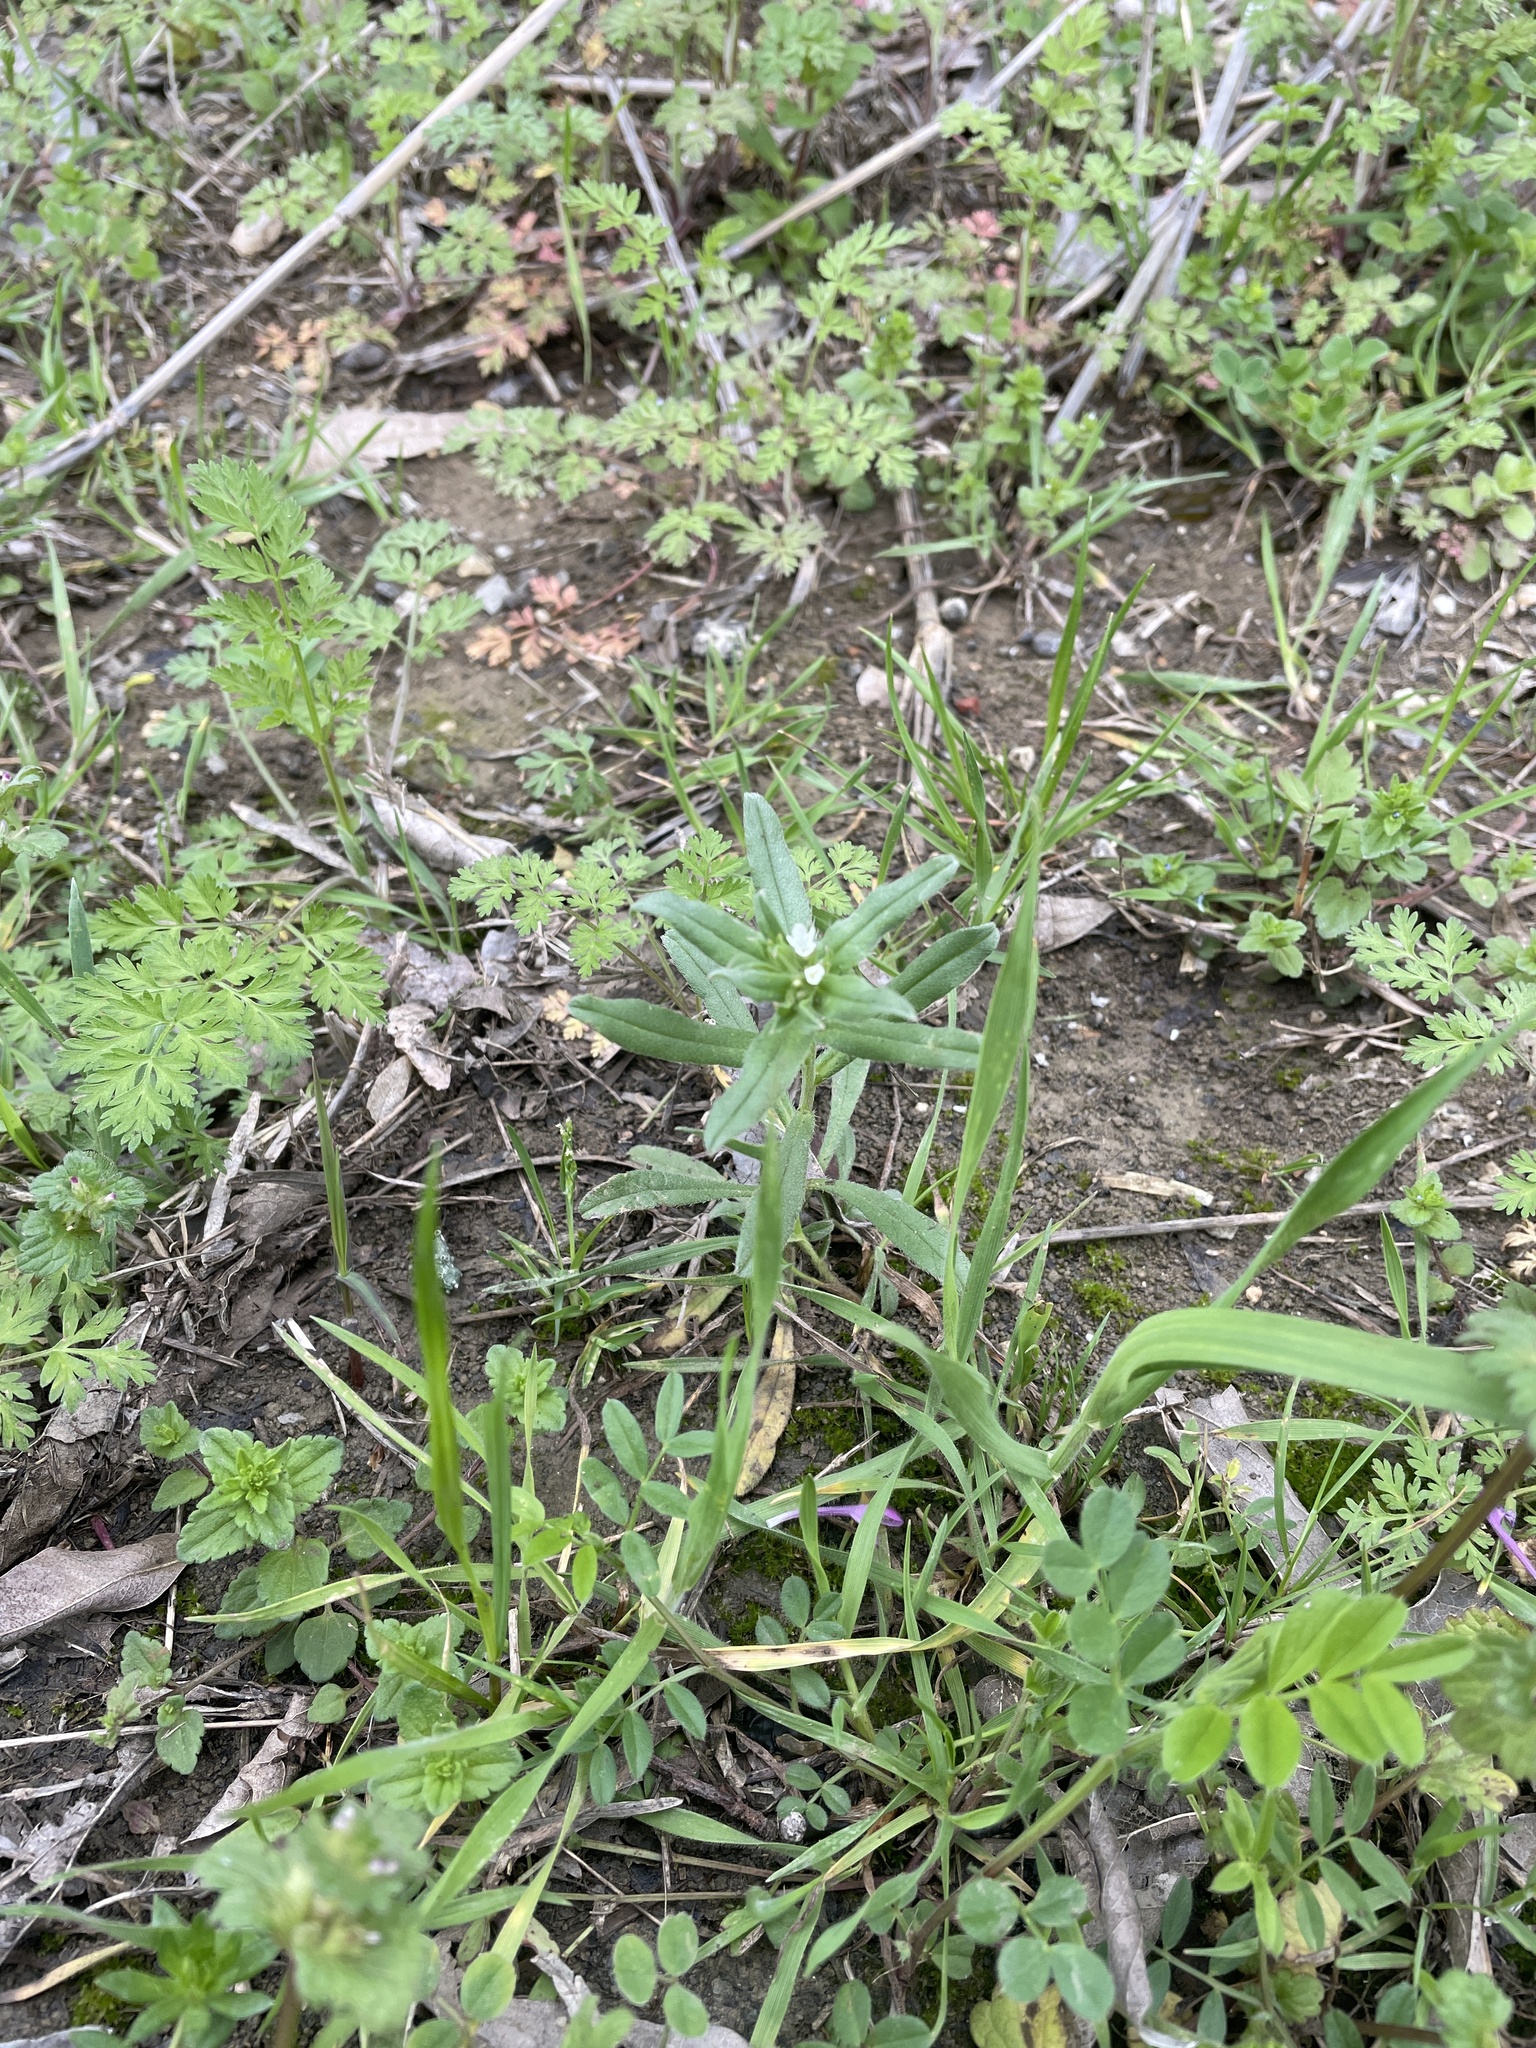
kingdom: Plantae
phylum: Tracheophyta
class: Magnoliopsida
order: Boraginales
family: Boraginaceae
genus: Buglossoides
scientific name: Buglossoides arvensis
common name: Corn gromwell
